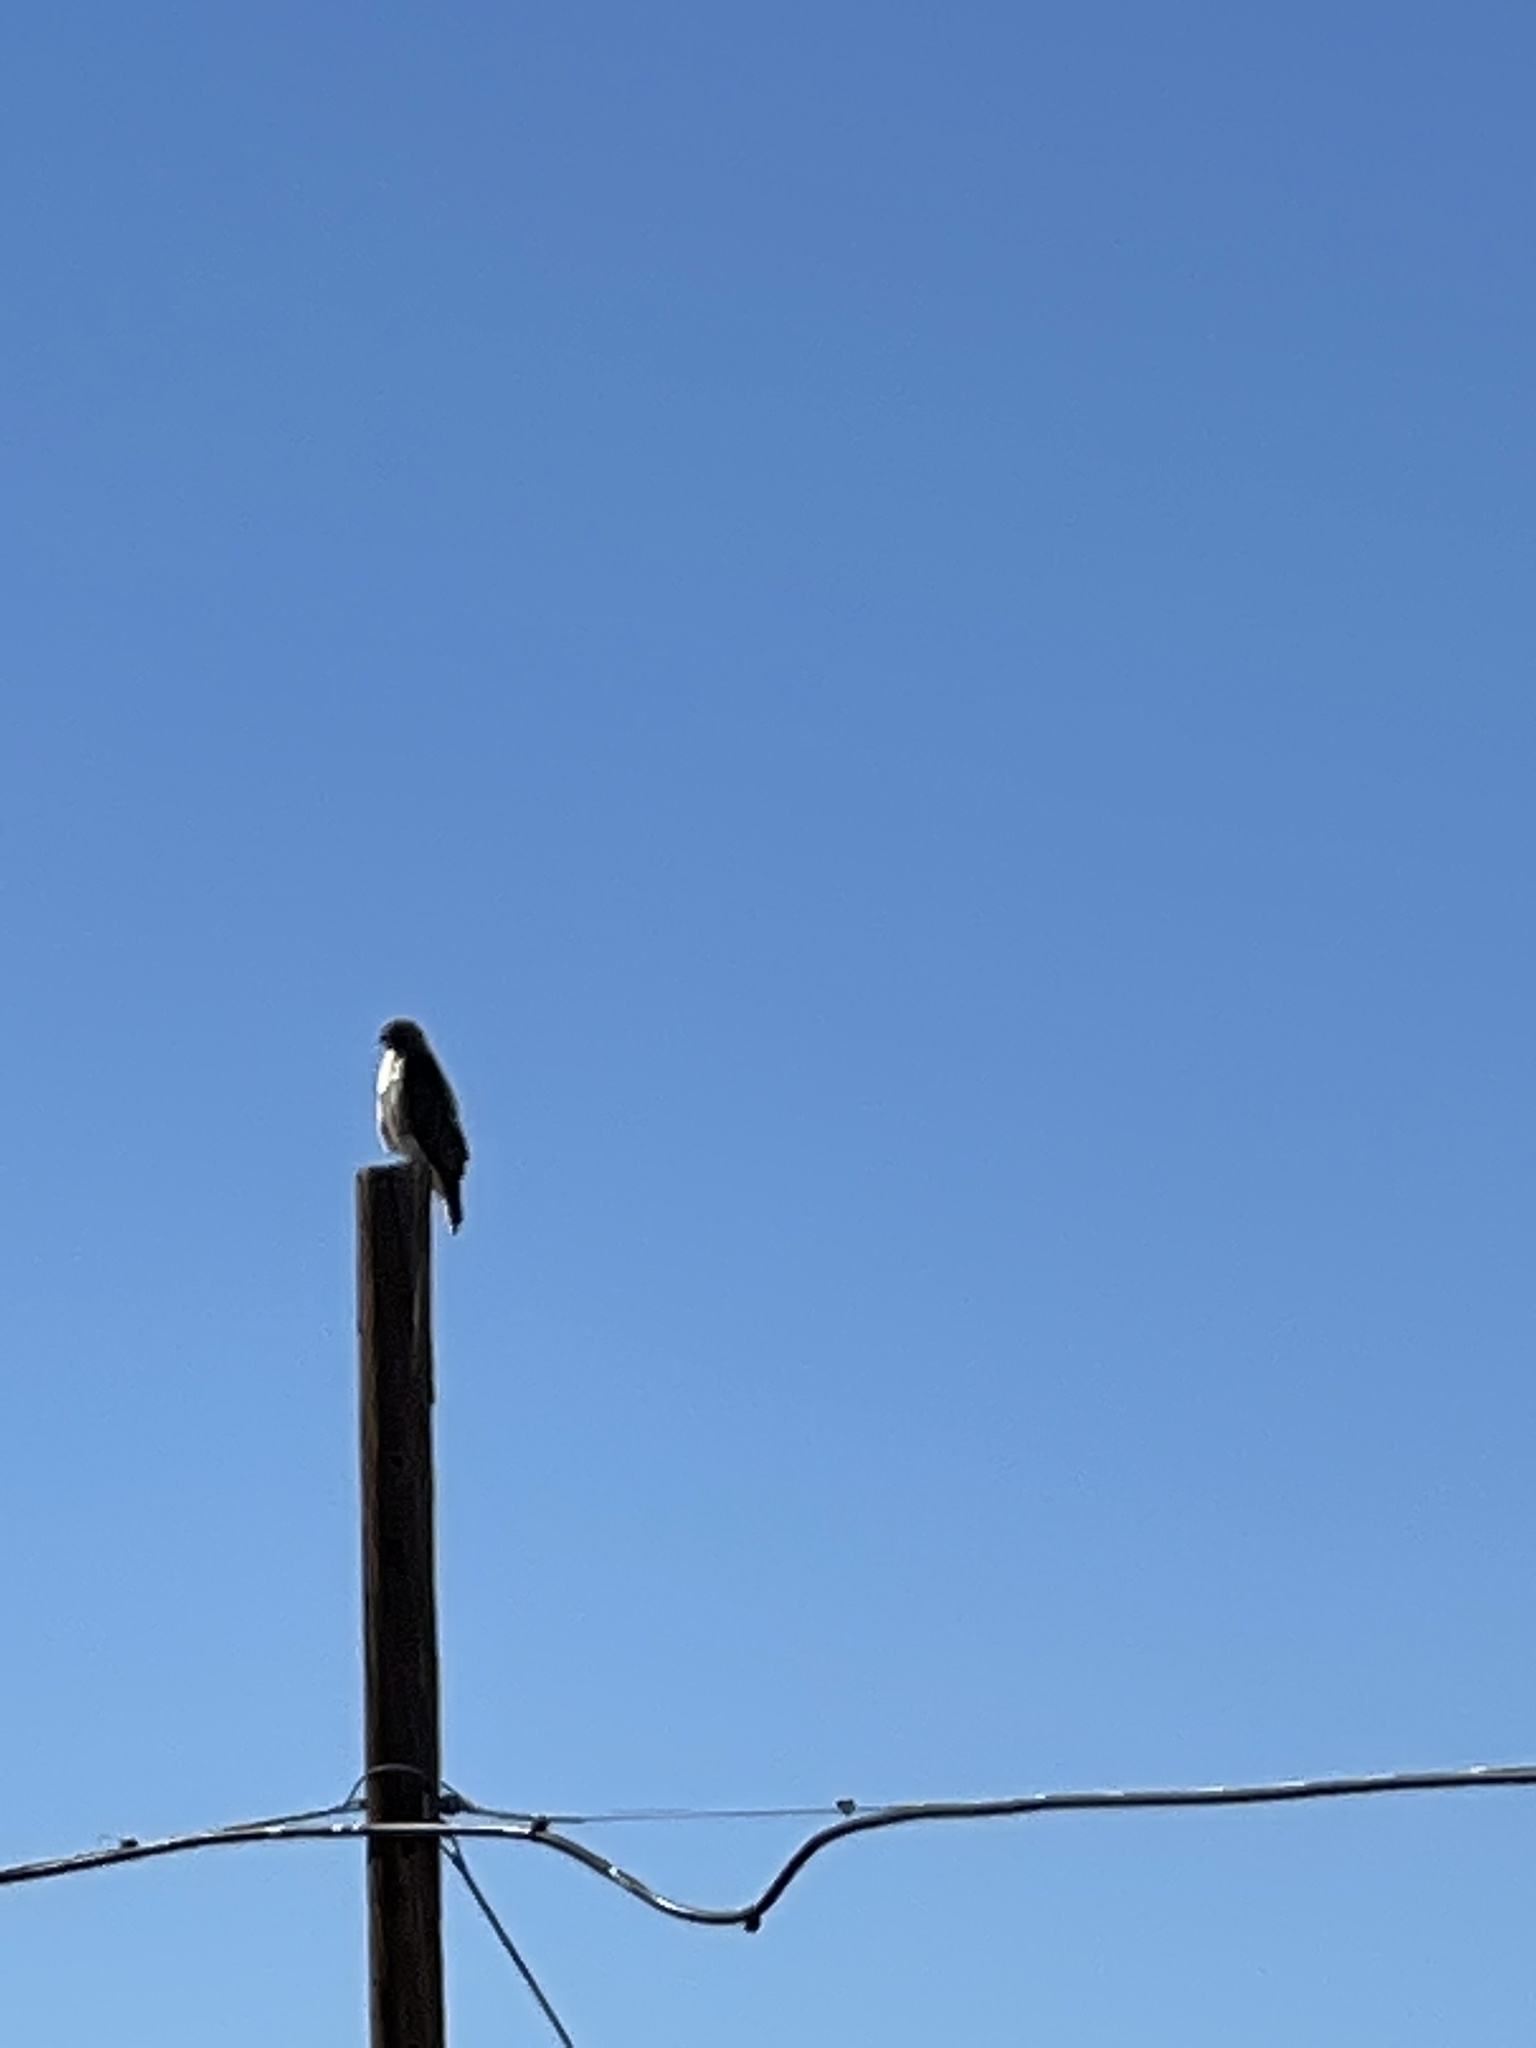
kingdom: Animalia
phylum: Chordata
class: Aves
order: Accipitriformes
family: Accipitridae
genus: Buteo
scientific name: Buteo jamaicensis
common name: Red-tailed hawk
